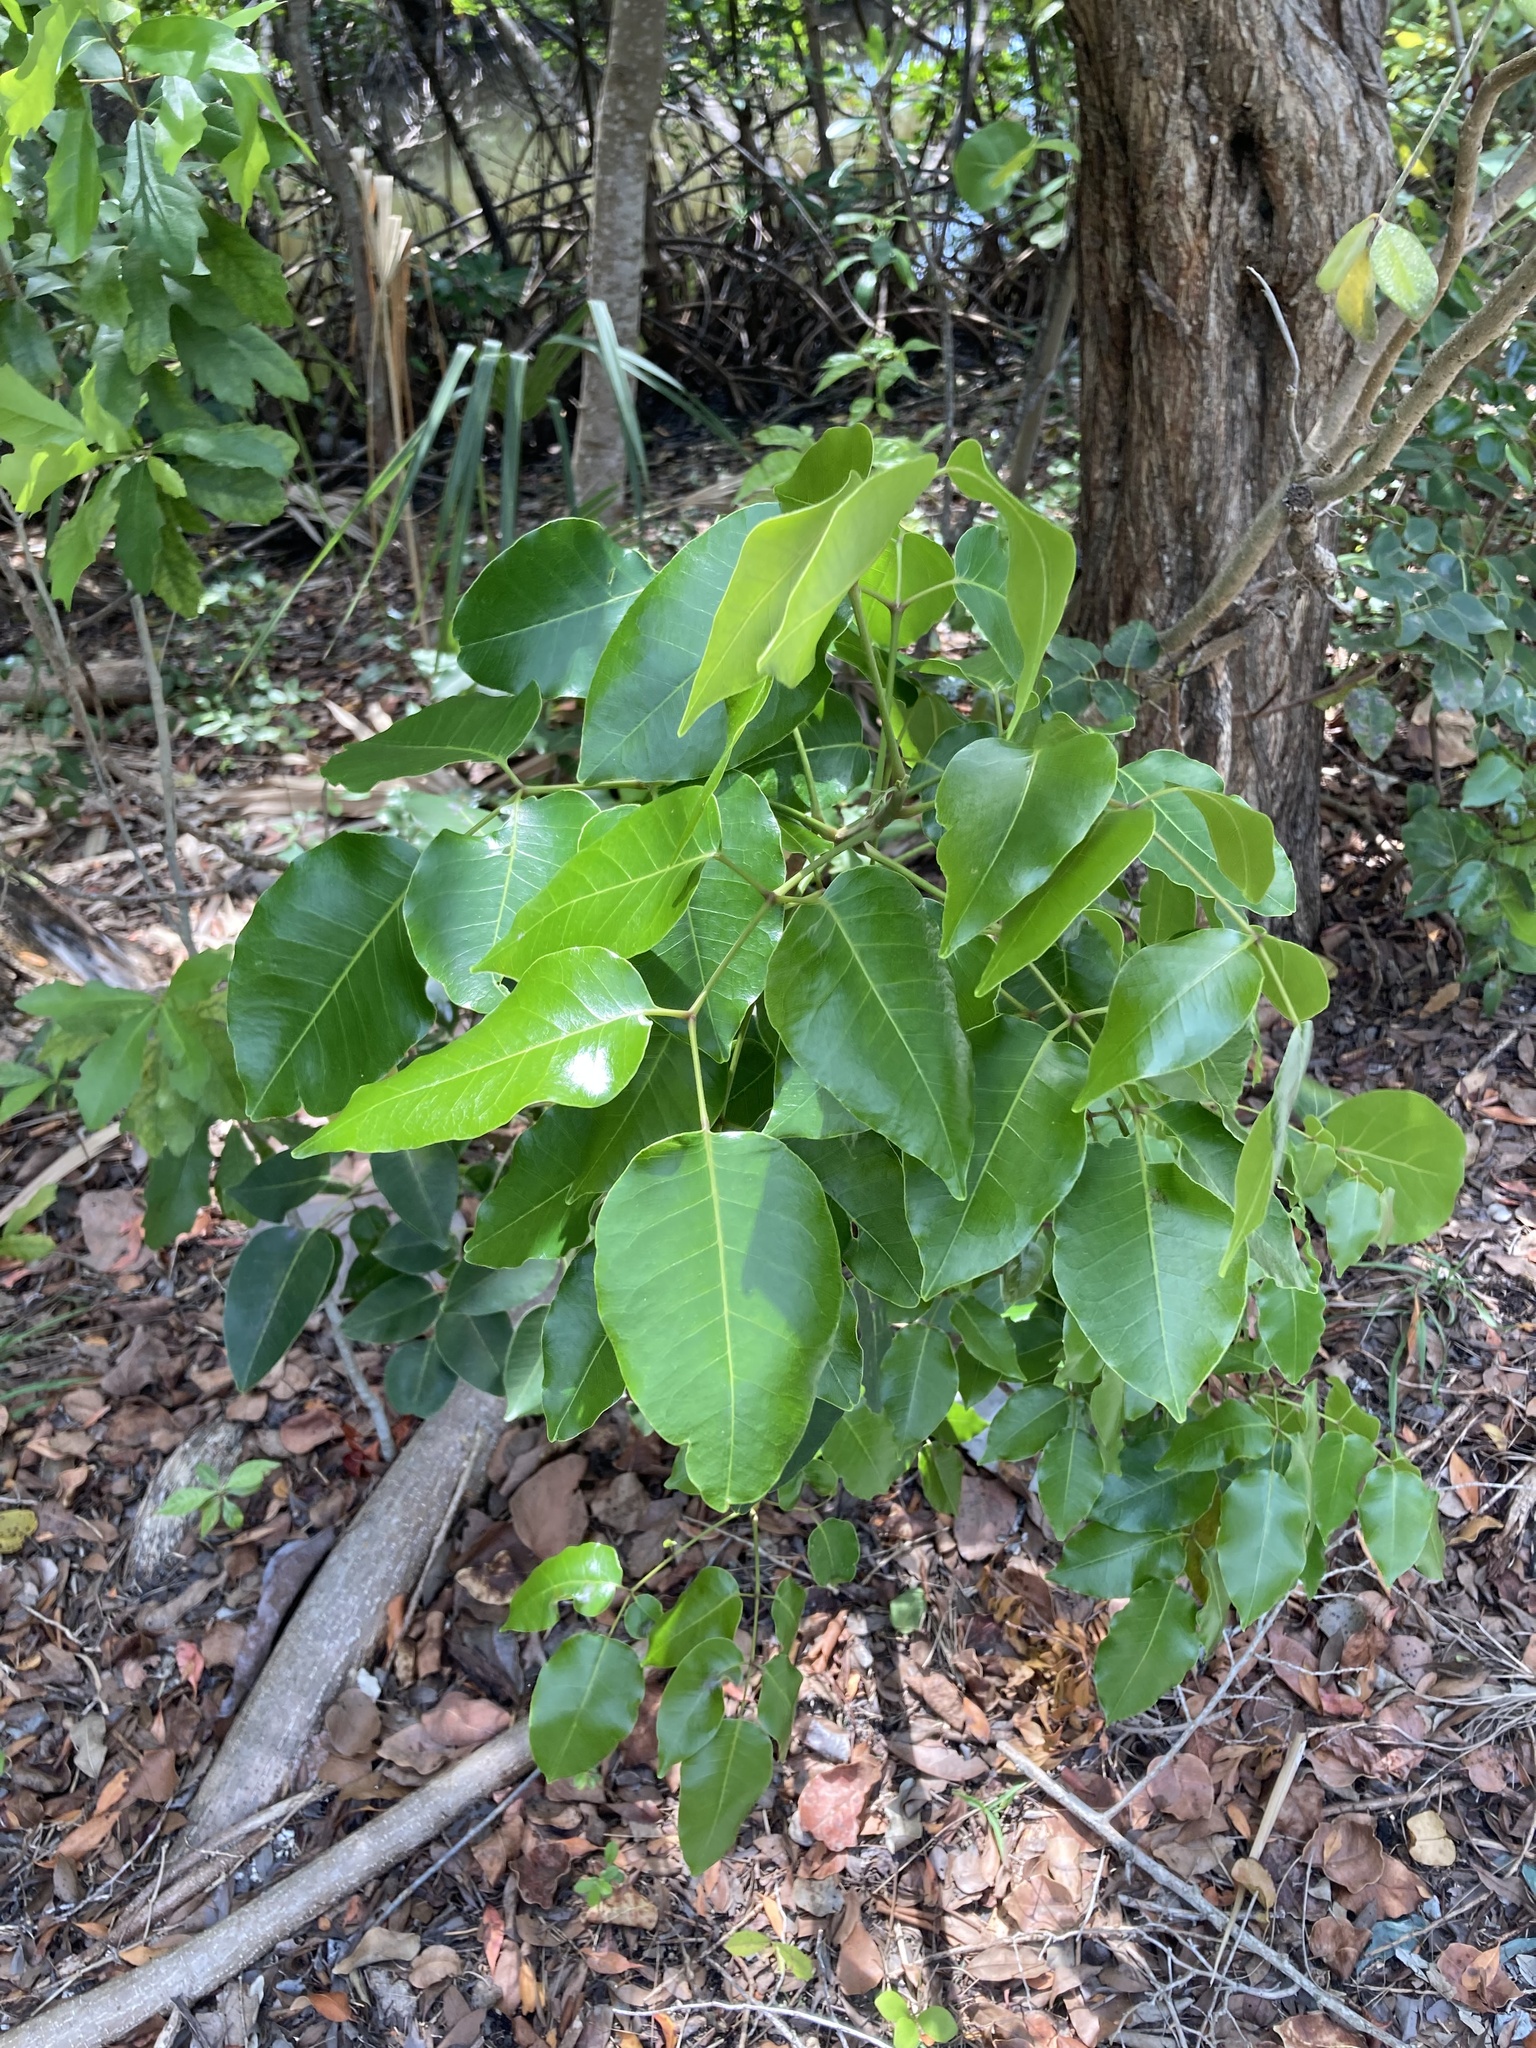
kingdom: Plantae
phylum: Tracheophyta
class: Magnoliopsida
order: Sapindales
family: Anacardiaceae
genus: Metopium
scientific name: Metopium toxiferum
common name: Florida poisontree
